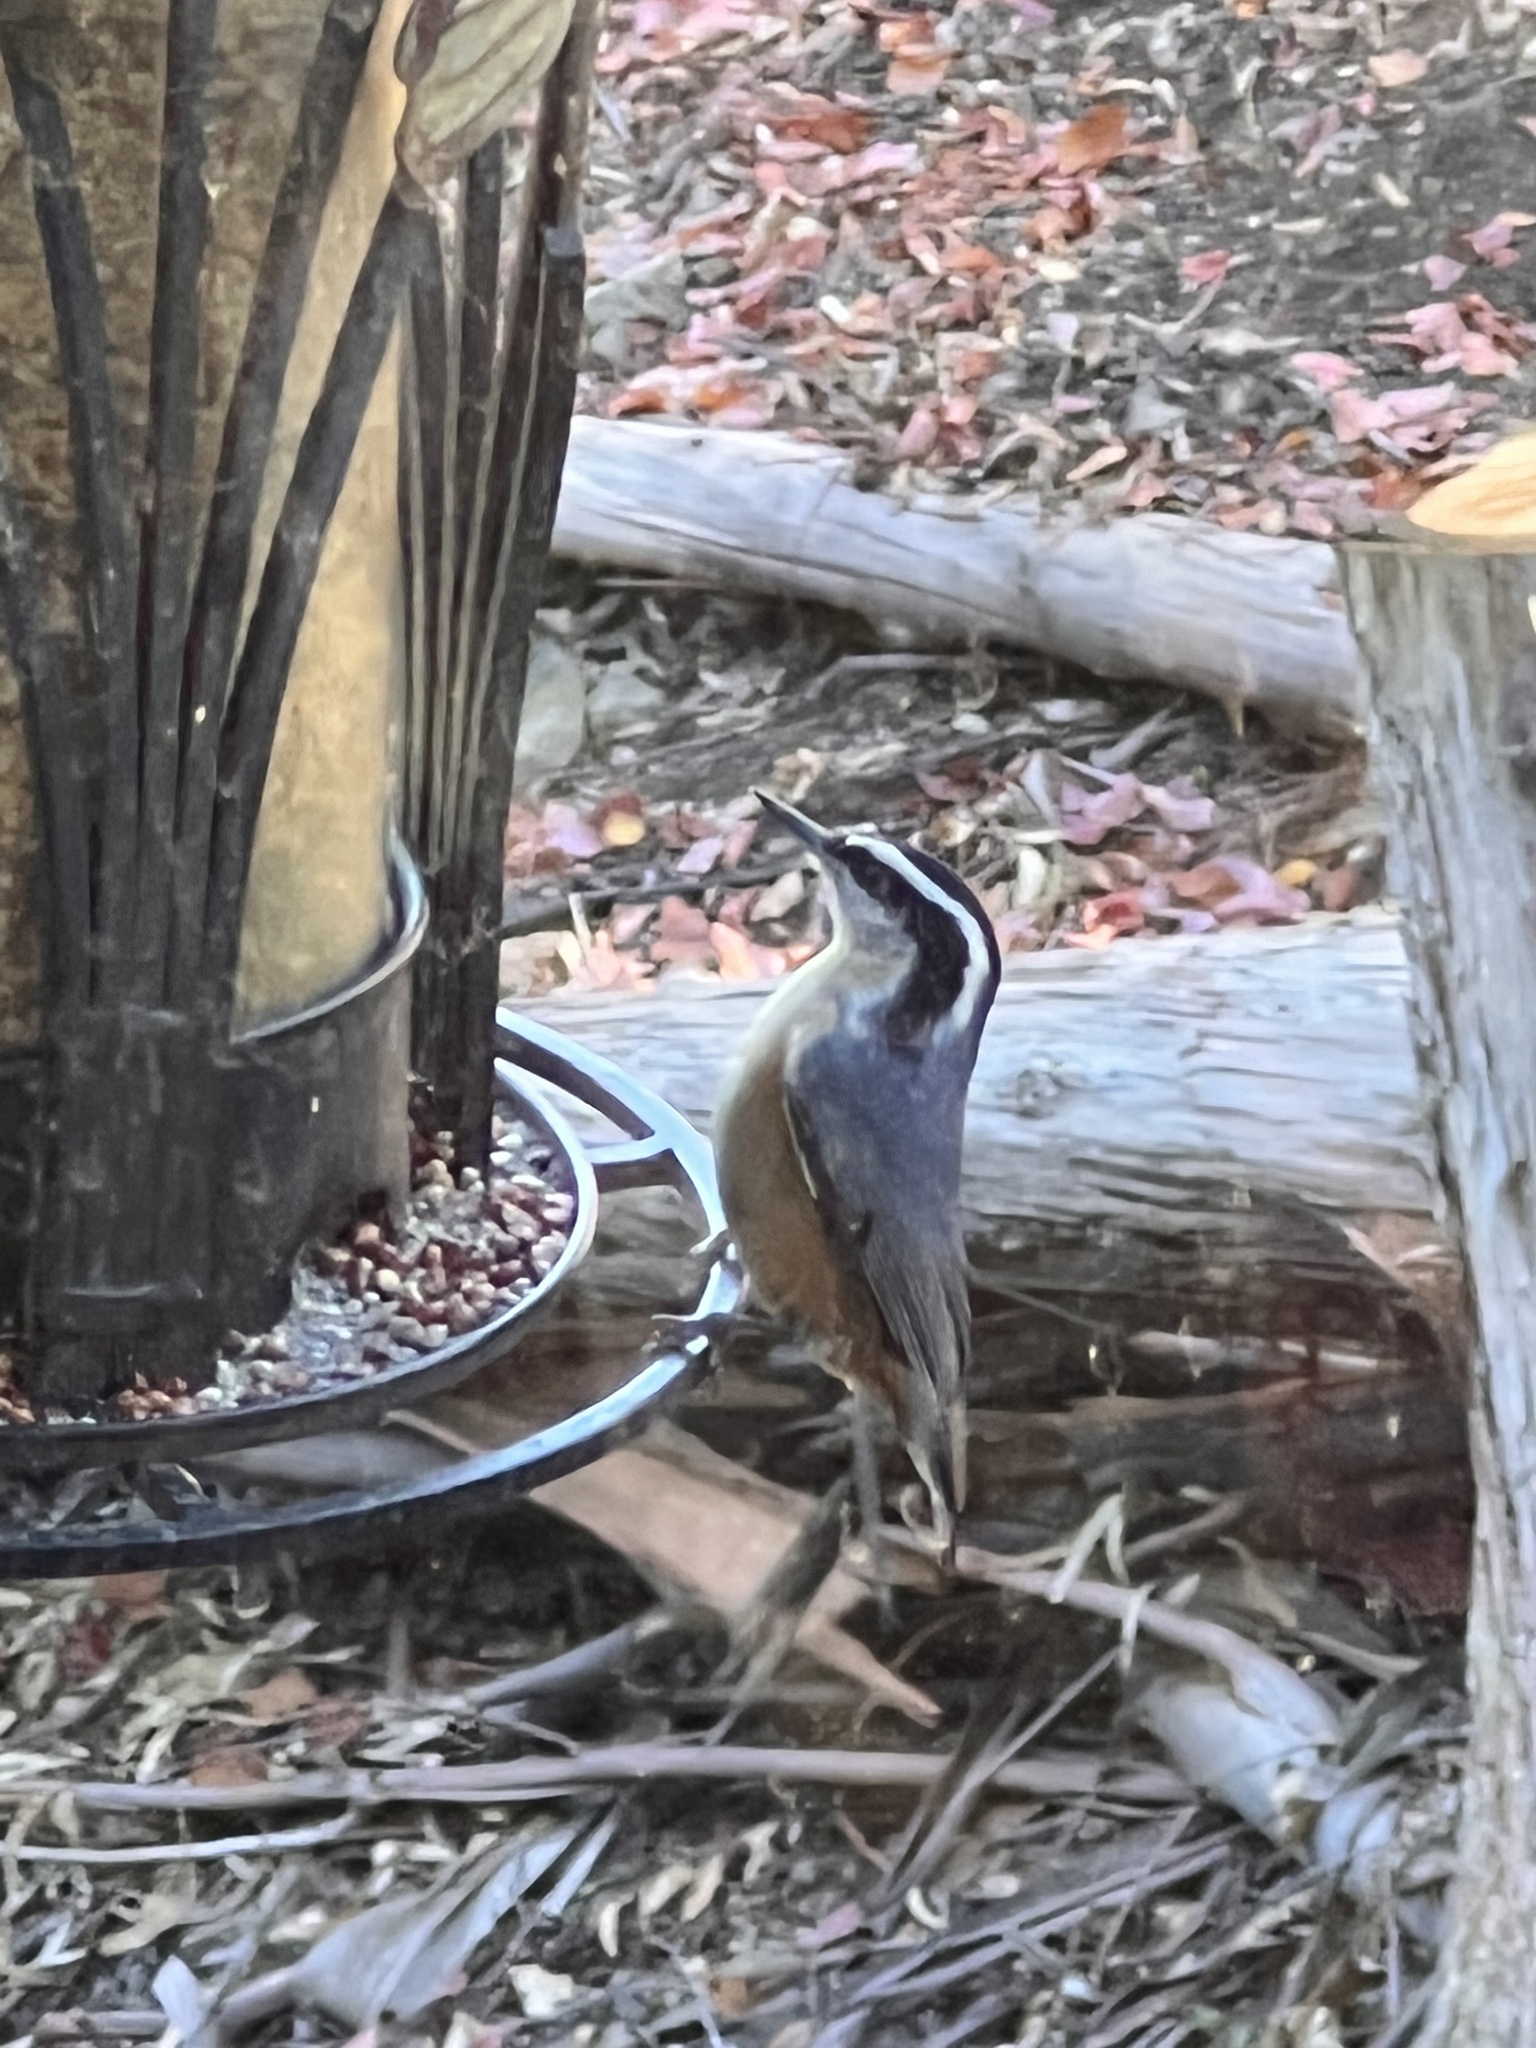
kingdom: Animalia
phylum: Chordata
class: Aves
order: Passeriformes
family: Sittidae
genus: Sitta
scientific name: Sitta canadensis
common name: Red-breasted nuthatch
